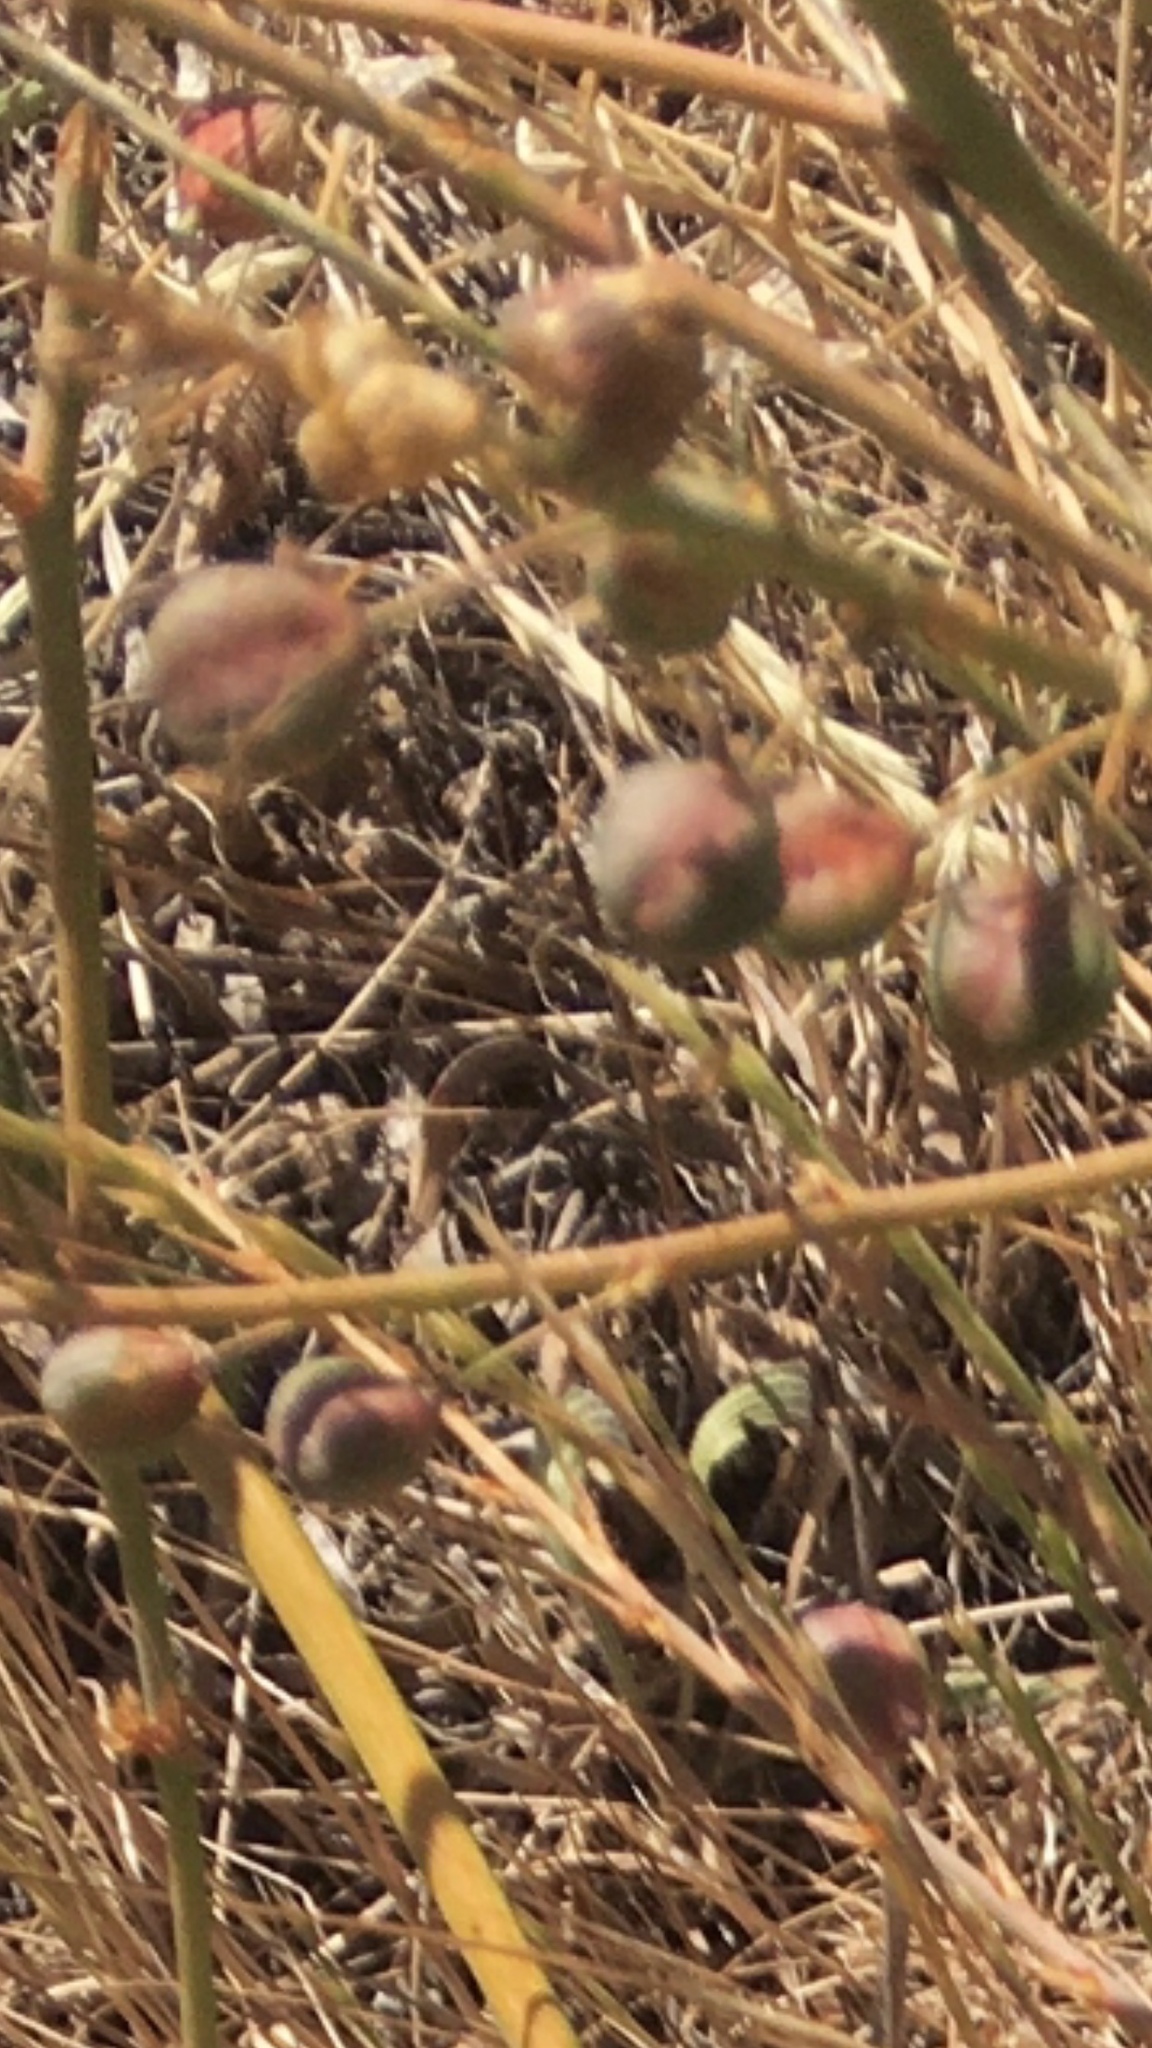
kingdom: Animalia
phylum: Chordata
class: Squamata
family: Viperidae
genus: Bitis
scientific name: Bitis arietans
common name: Puff adder
